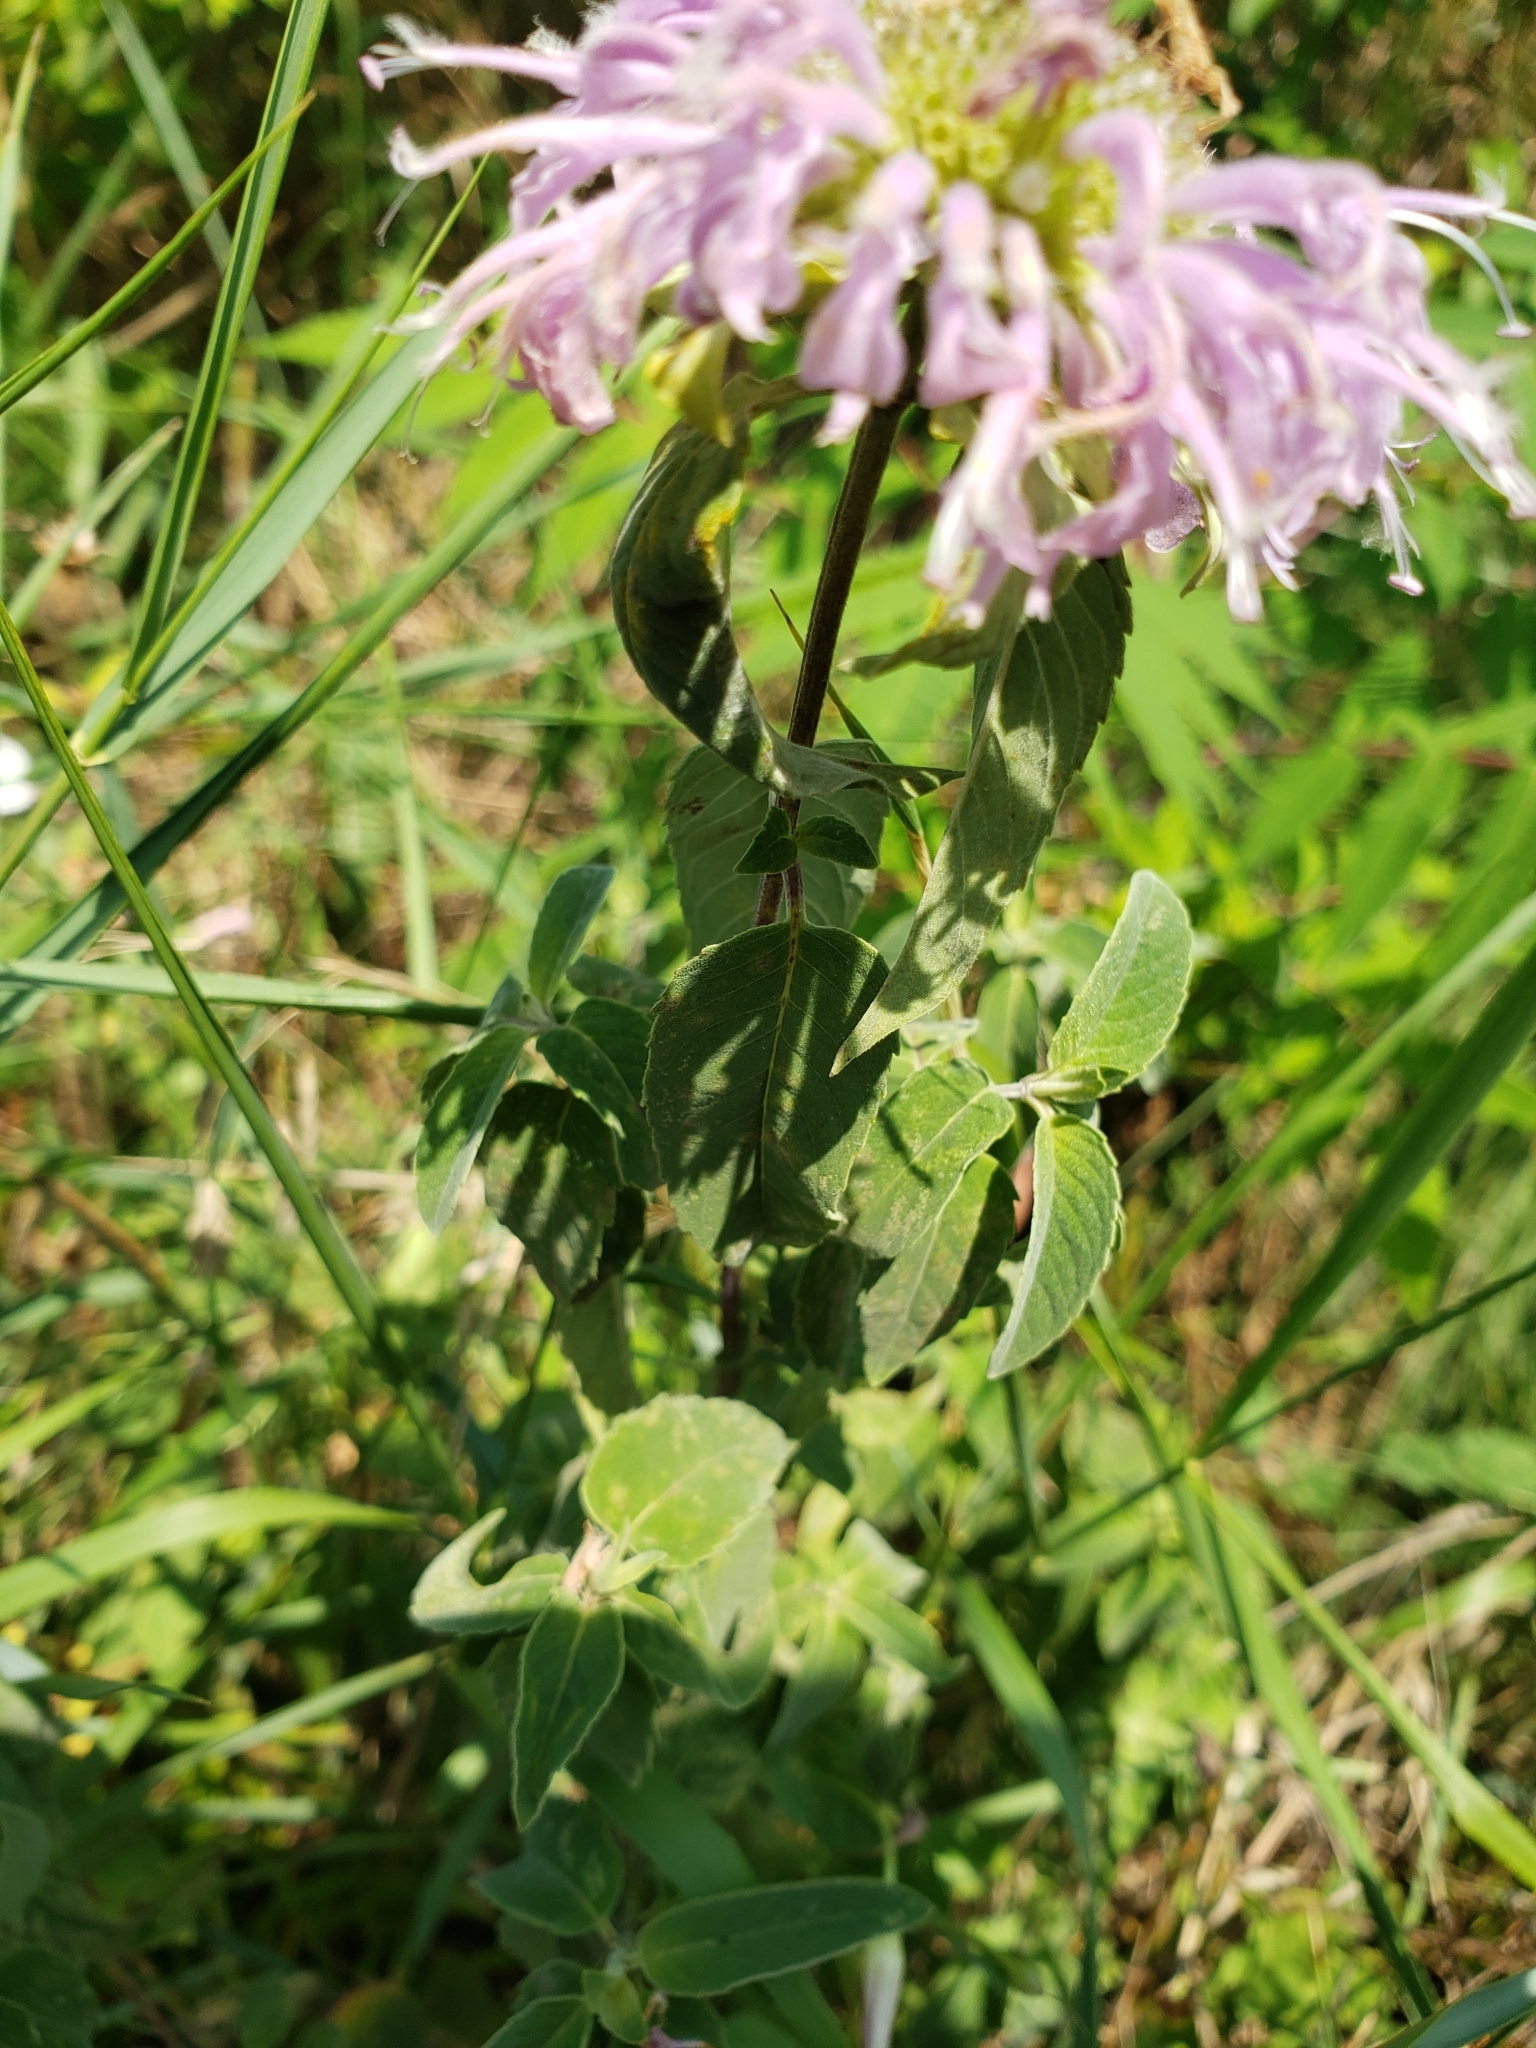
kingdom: Plantae
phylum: Tracheophyta
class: Magnoliopsida
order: Lamiales
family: Lamiaceae
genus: Monarda
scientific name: Monarda fistulosa
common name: Purple beebalm
